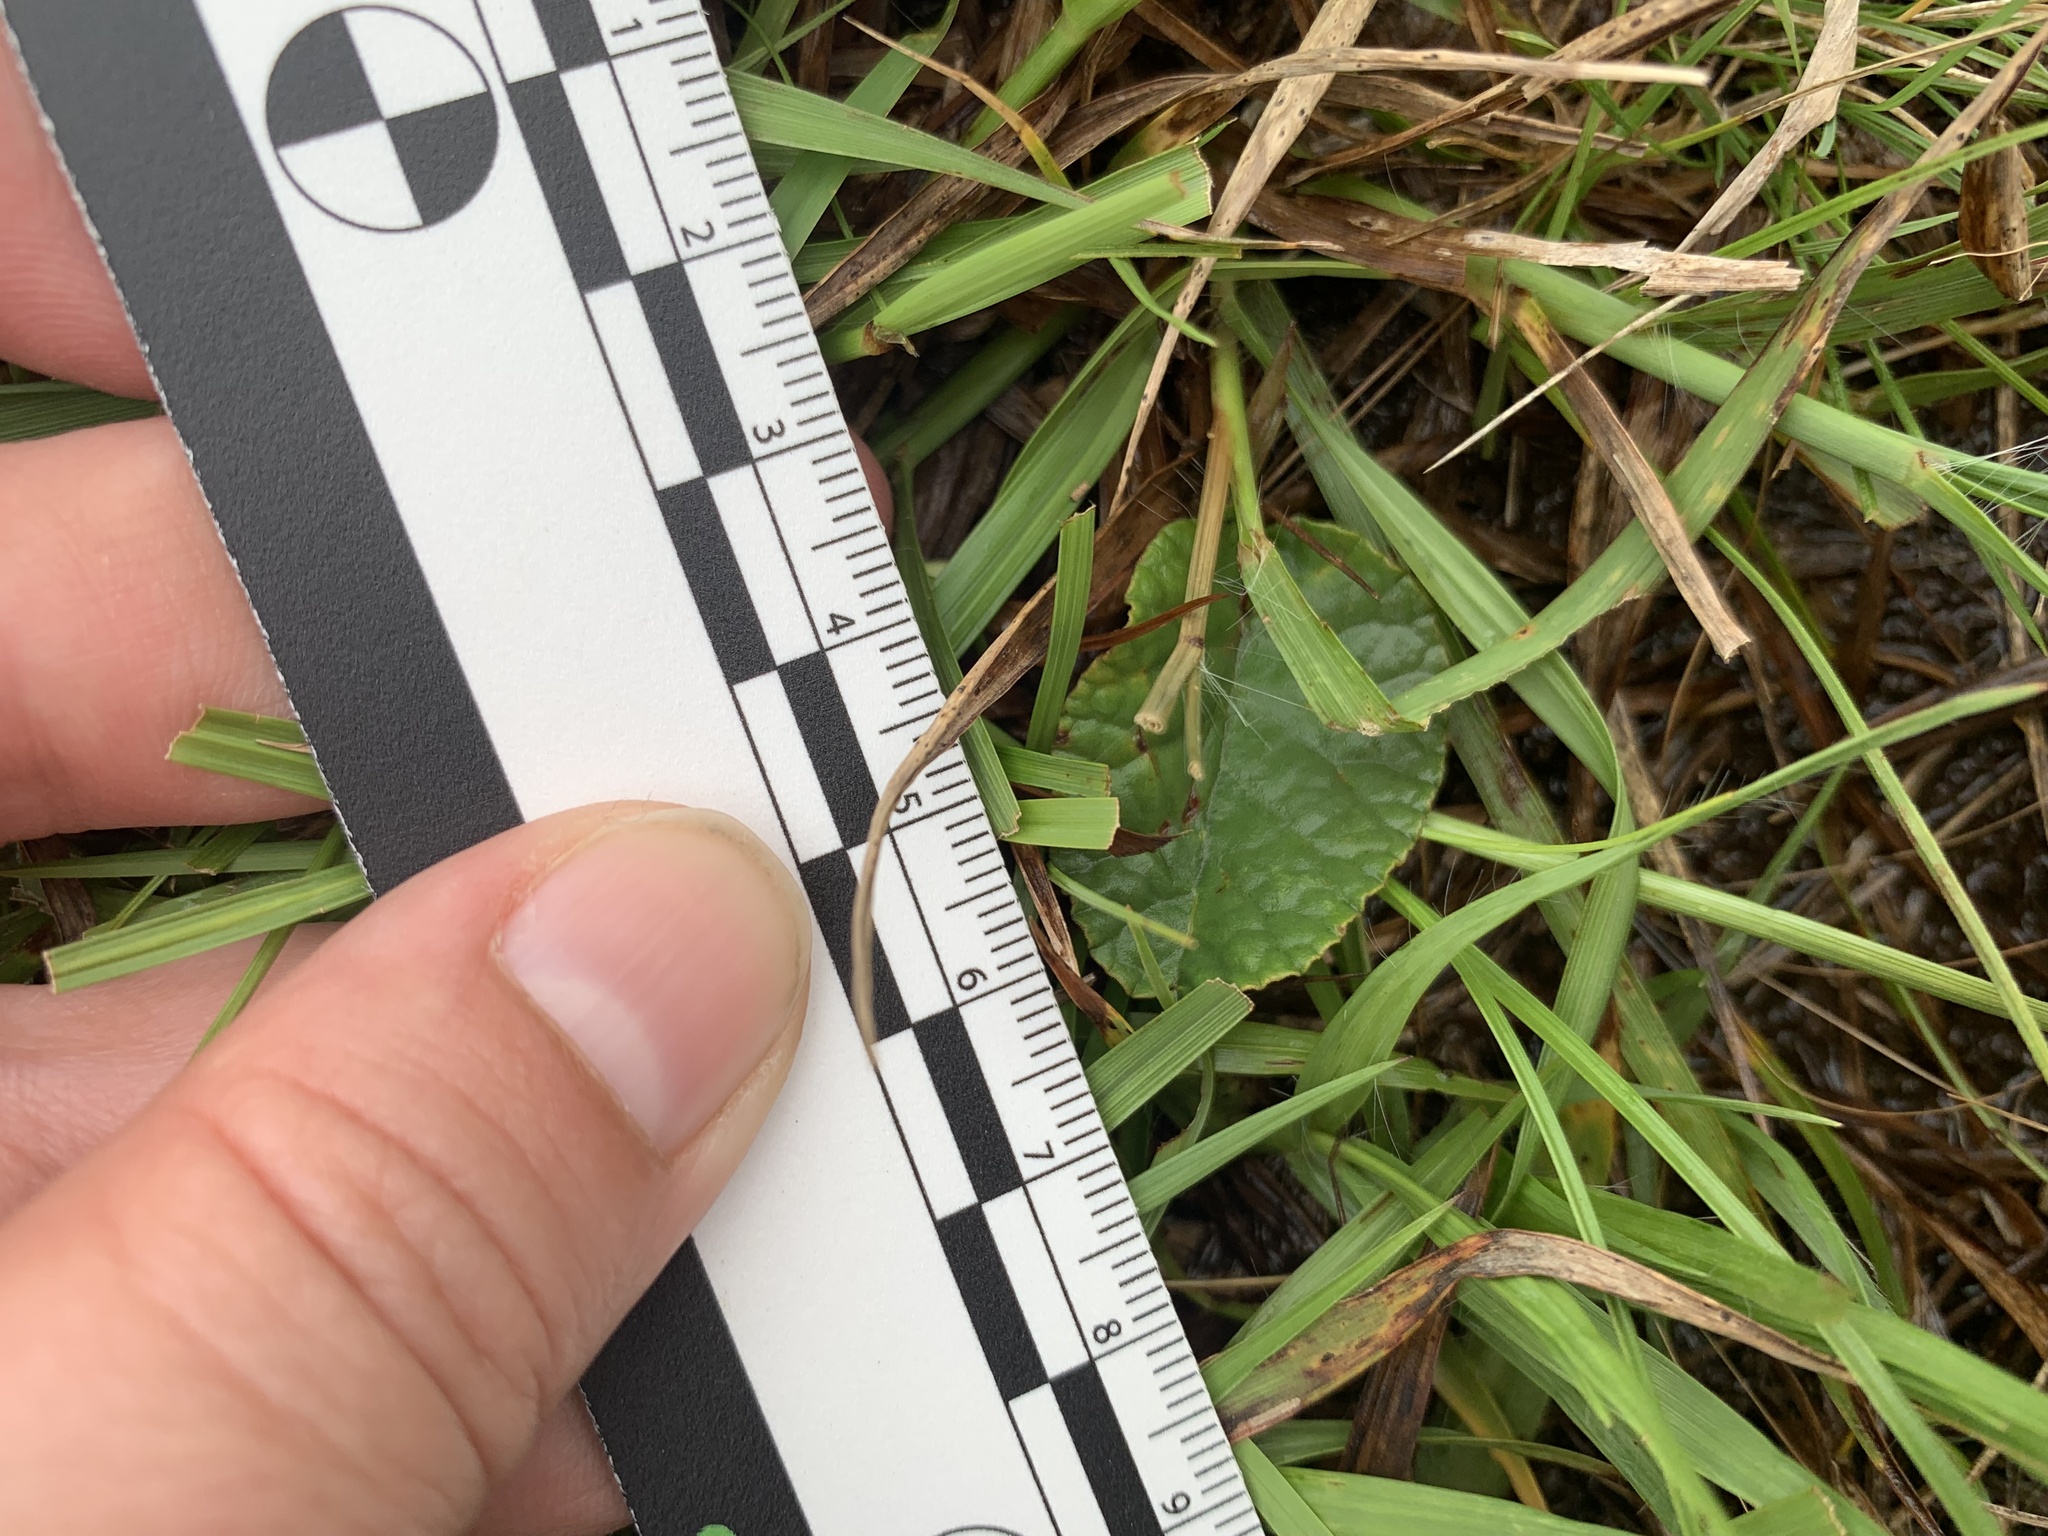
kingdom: Plantae
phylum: Tracheophyta
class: Magnoliopsida
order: Rosales
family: Moraceae
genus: Dorstenia
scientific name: Dorstenia brasiliensis
